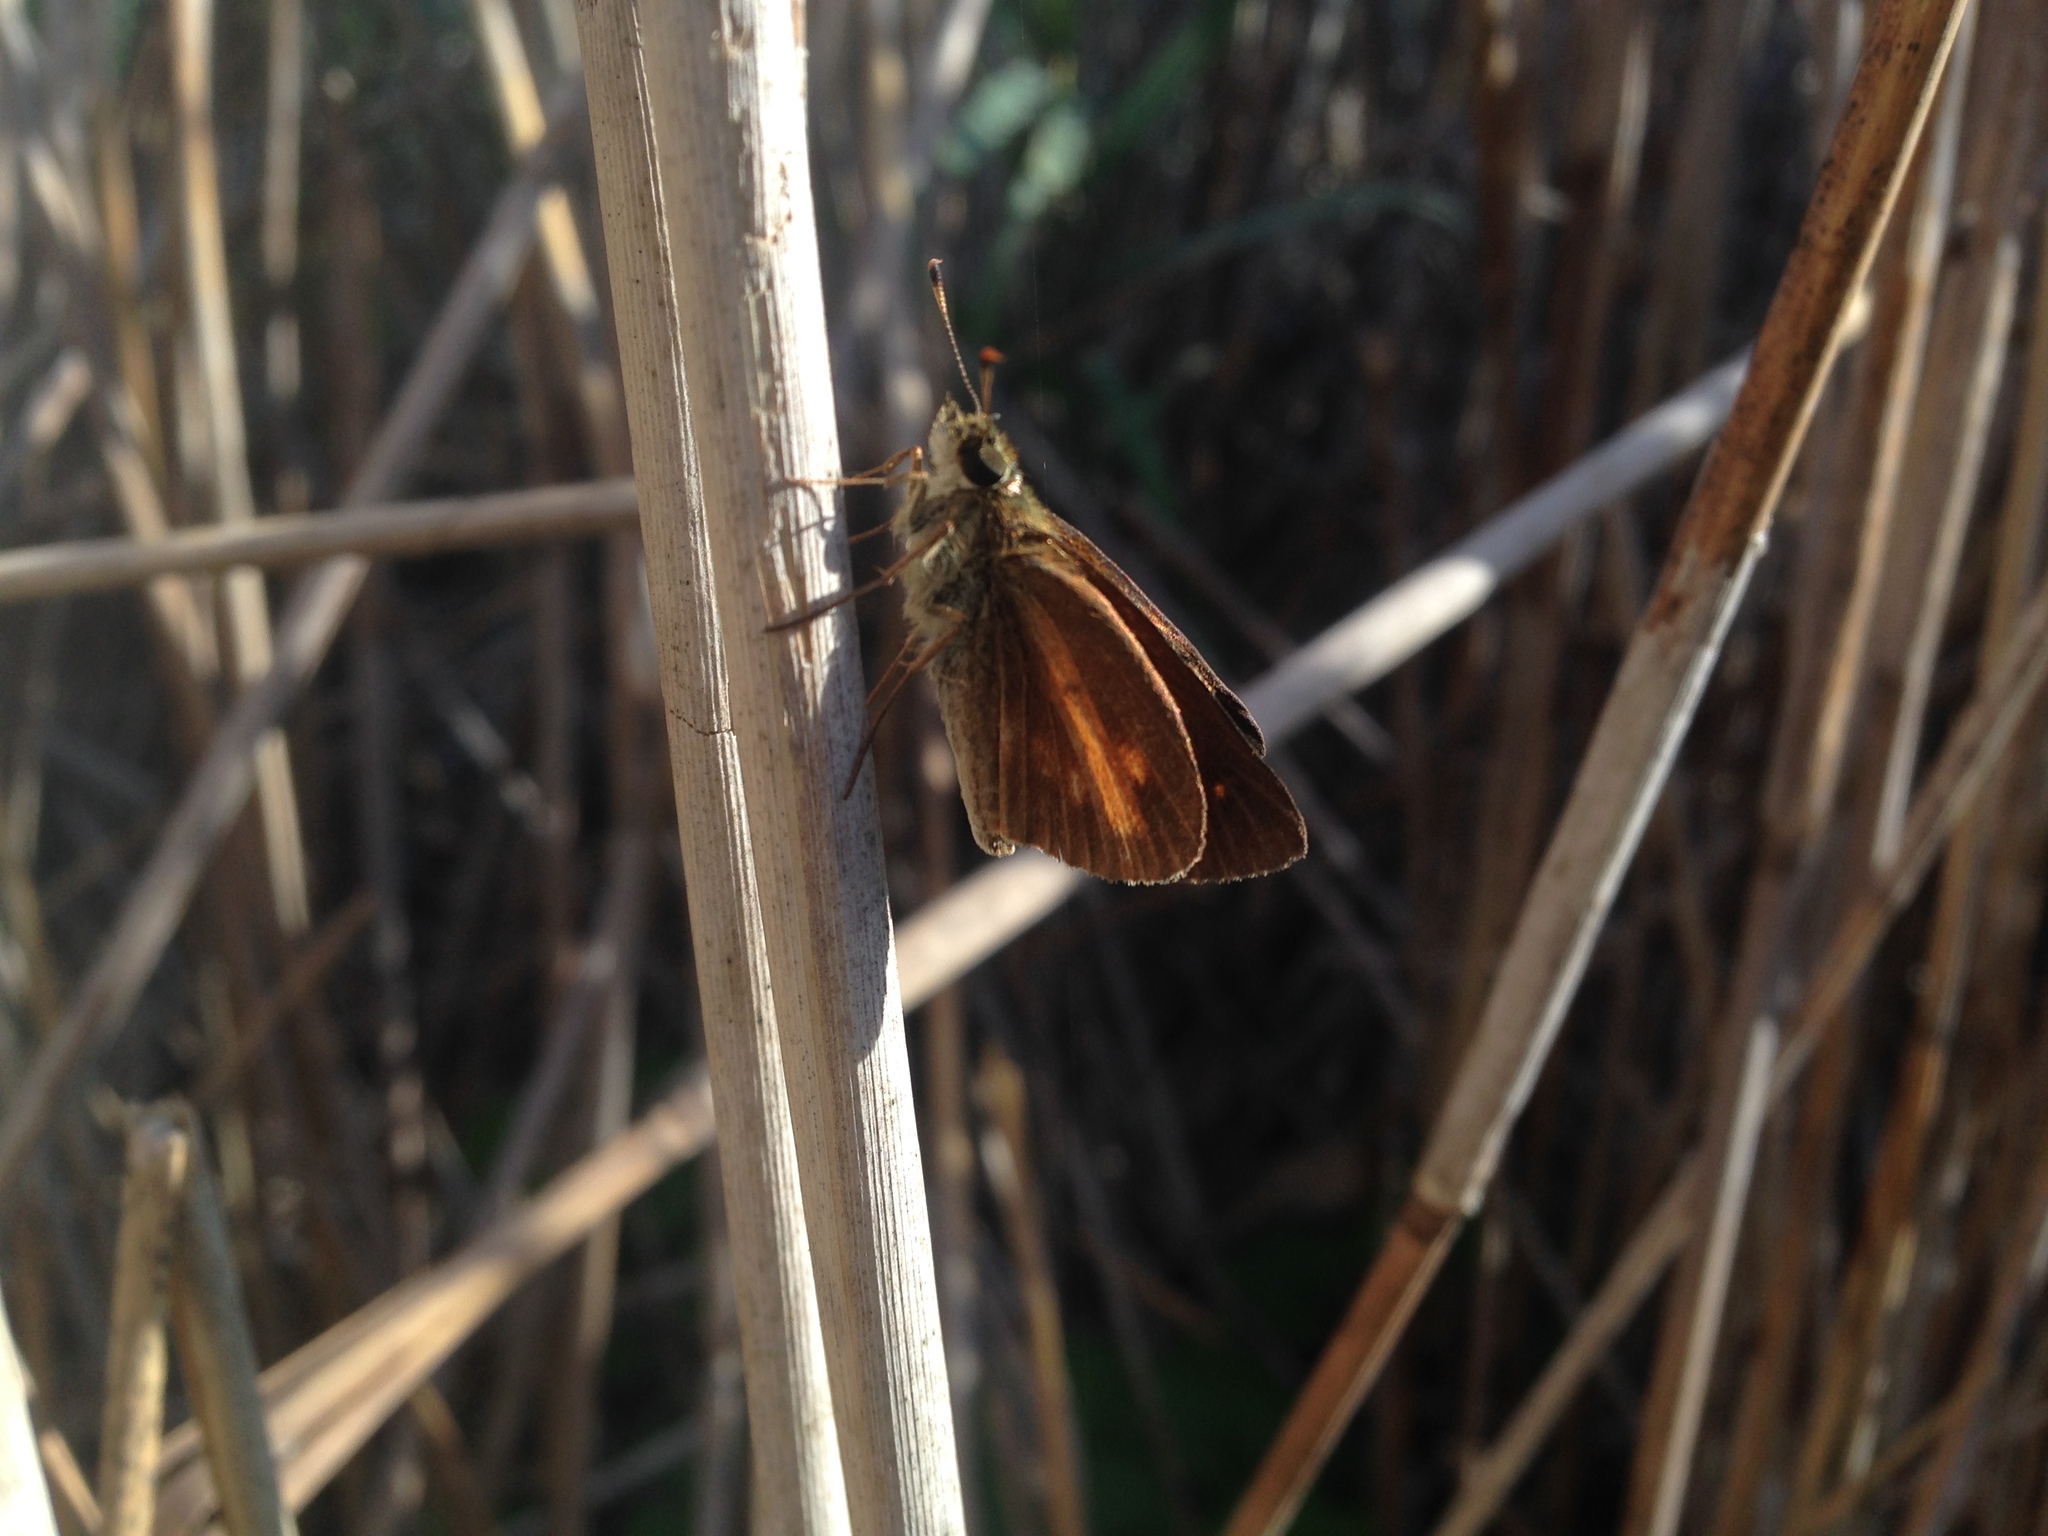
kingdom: Animalia
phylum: Arthropoda
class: Insecta
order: Lepidoptera
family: Hesperiidae
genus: Poanes
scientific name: Poanes viator
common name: Broad-winged skipper
